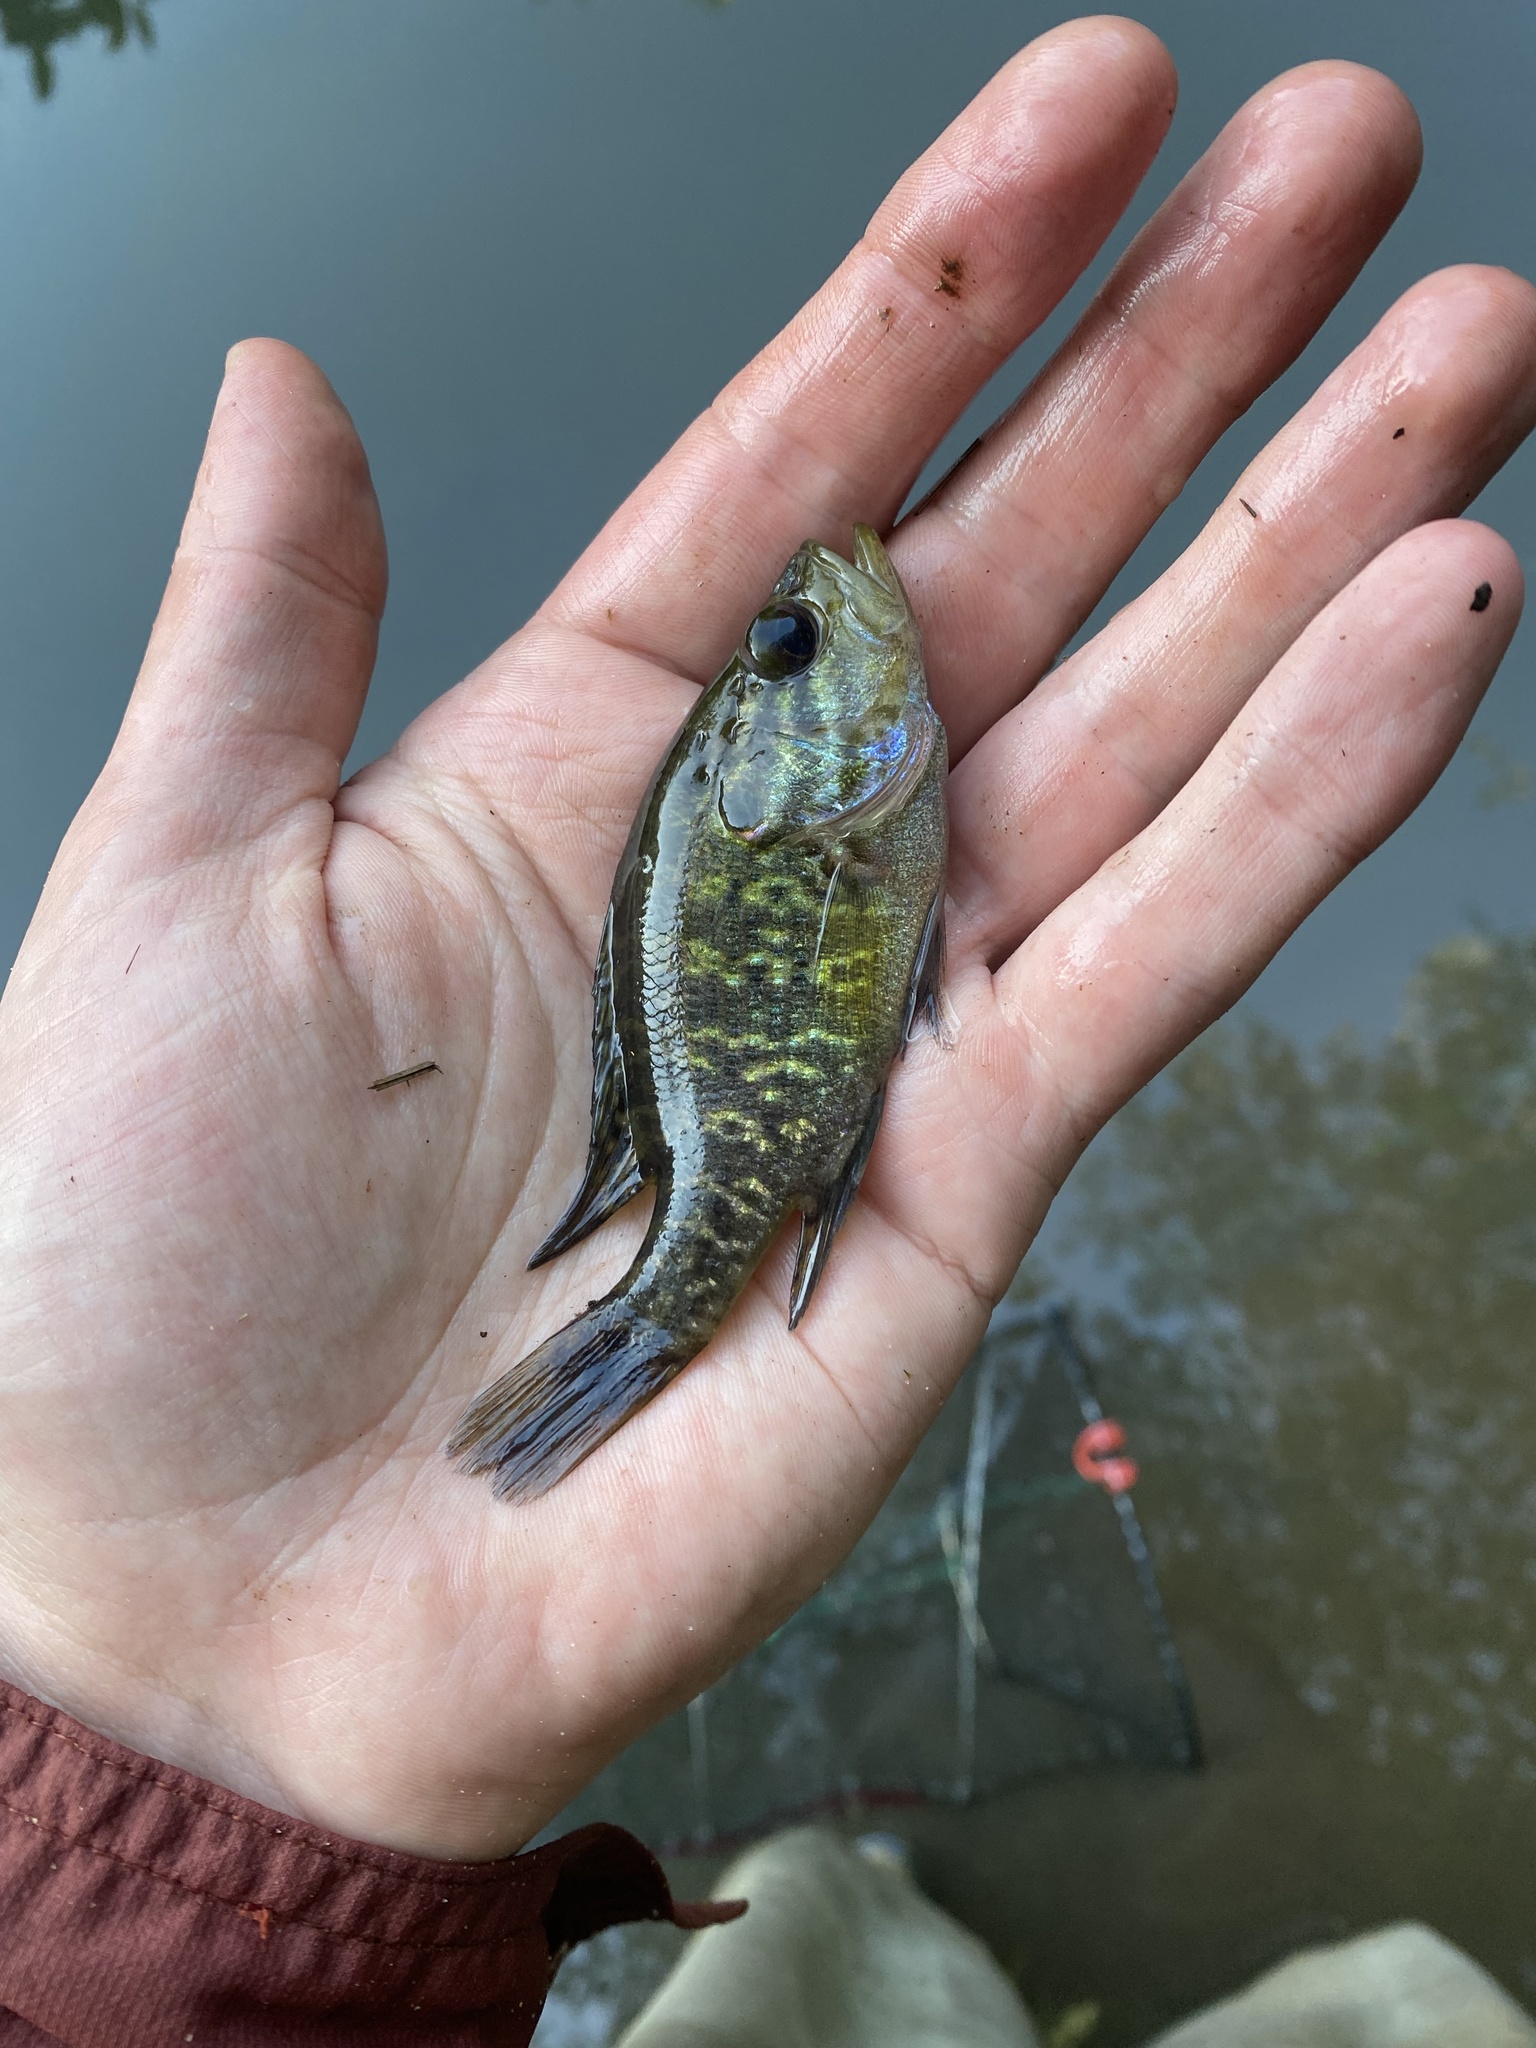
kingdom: Animalia
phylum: Chordata
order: Perciformes
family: Centrarchidae
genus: Lepomis
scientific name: Lepomis gulosus
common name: Warmouth
